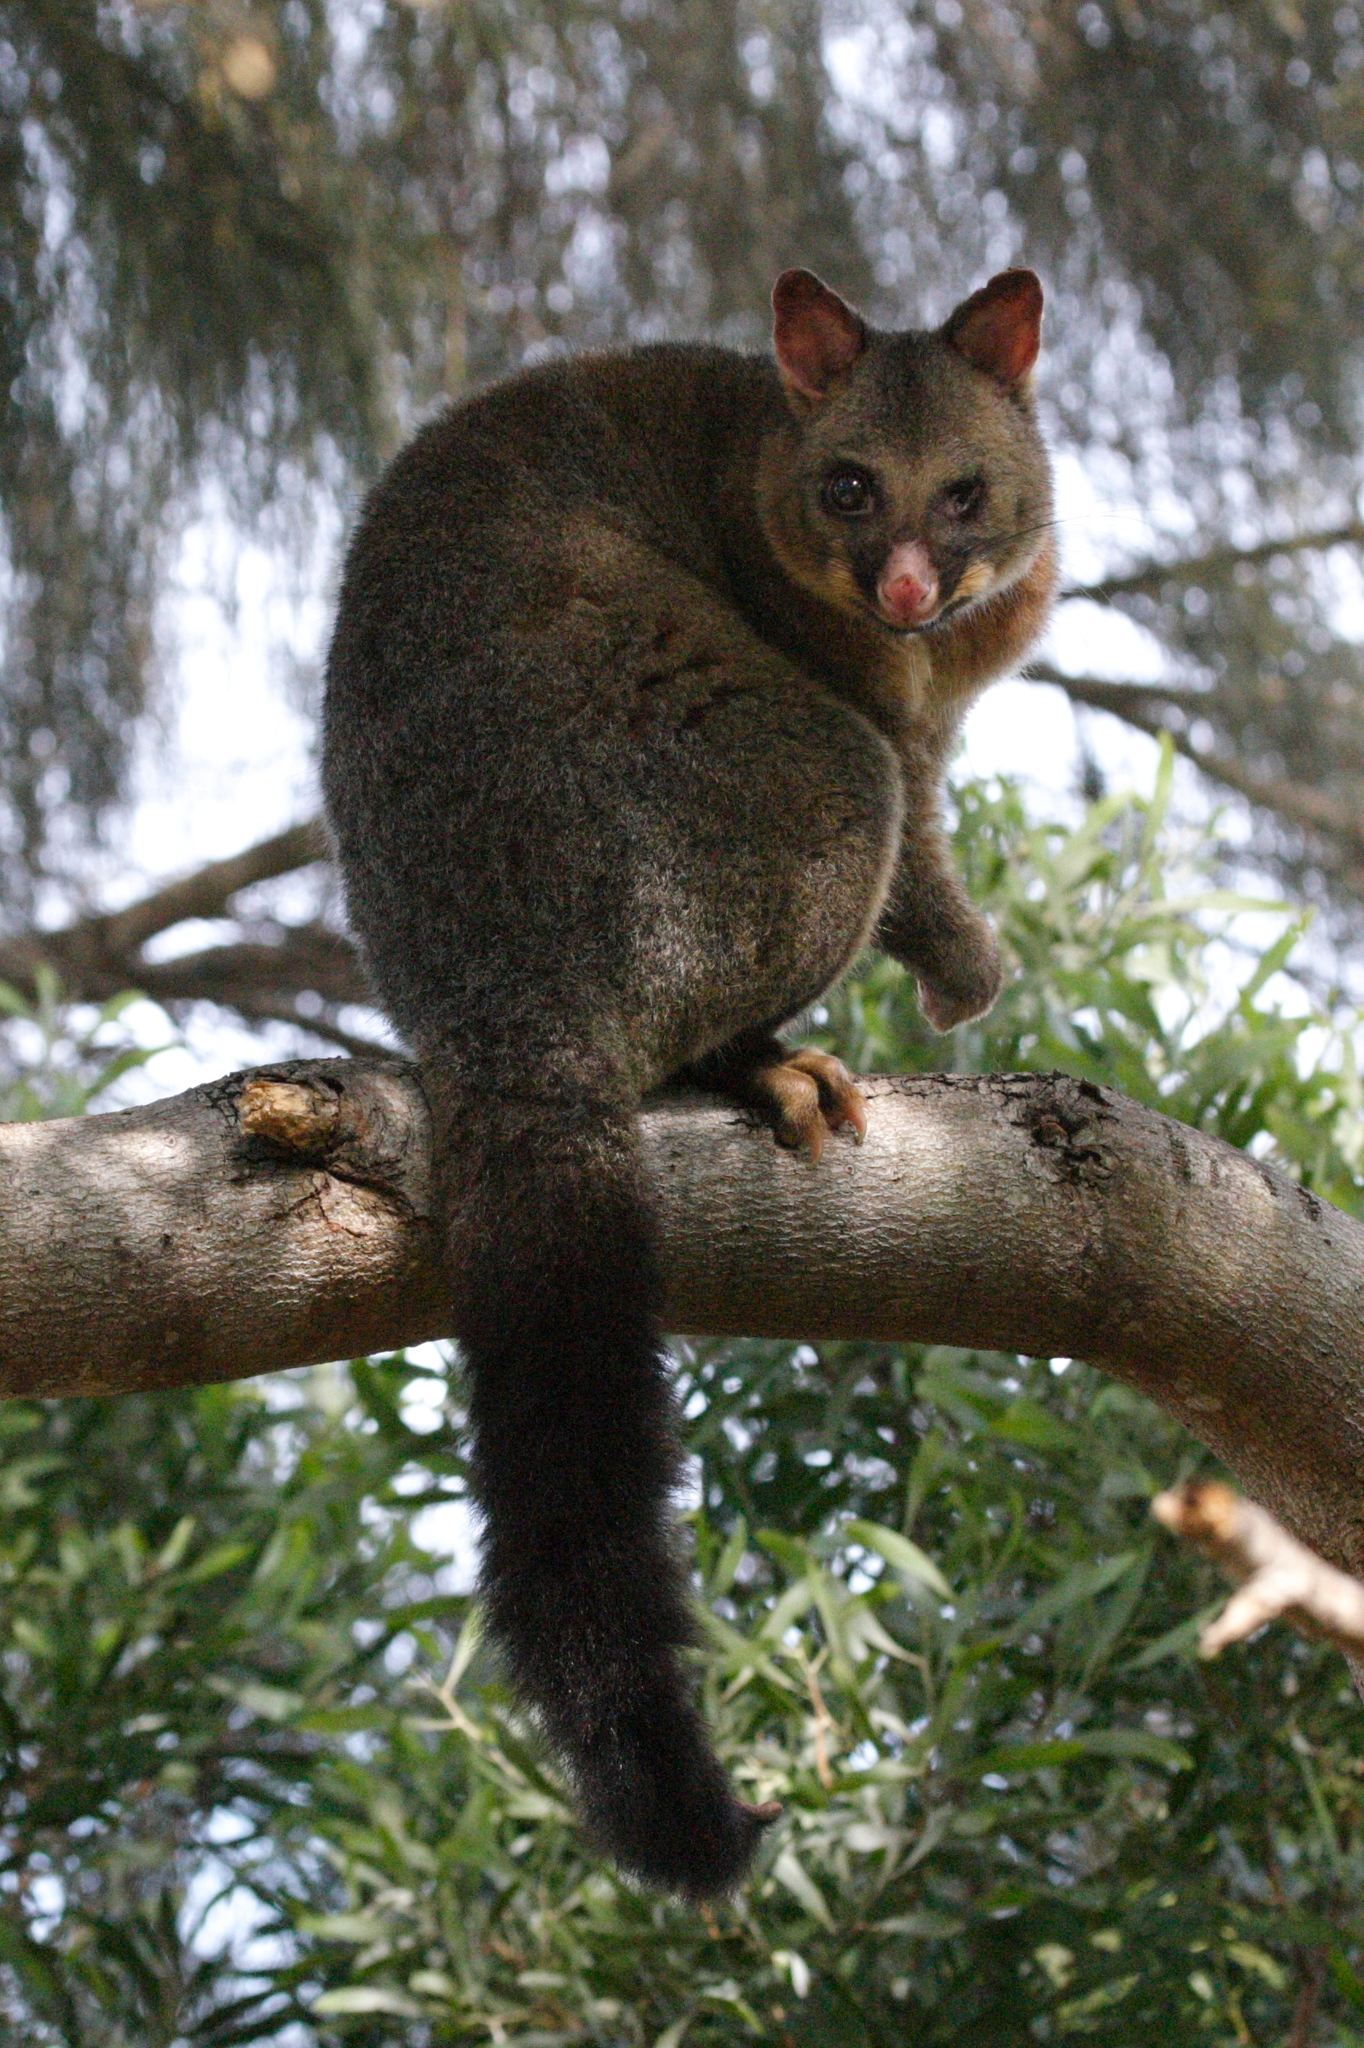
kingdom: Animalia
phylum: Chordata
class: Mammalia
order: Diprotodontia
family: Phalangeridae
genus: Trichosurus
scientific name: Trichosurus vulpecula
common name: Common brushtail
